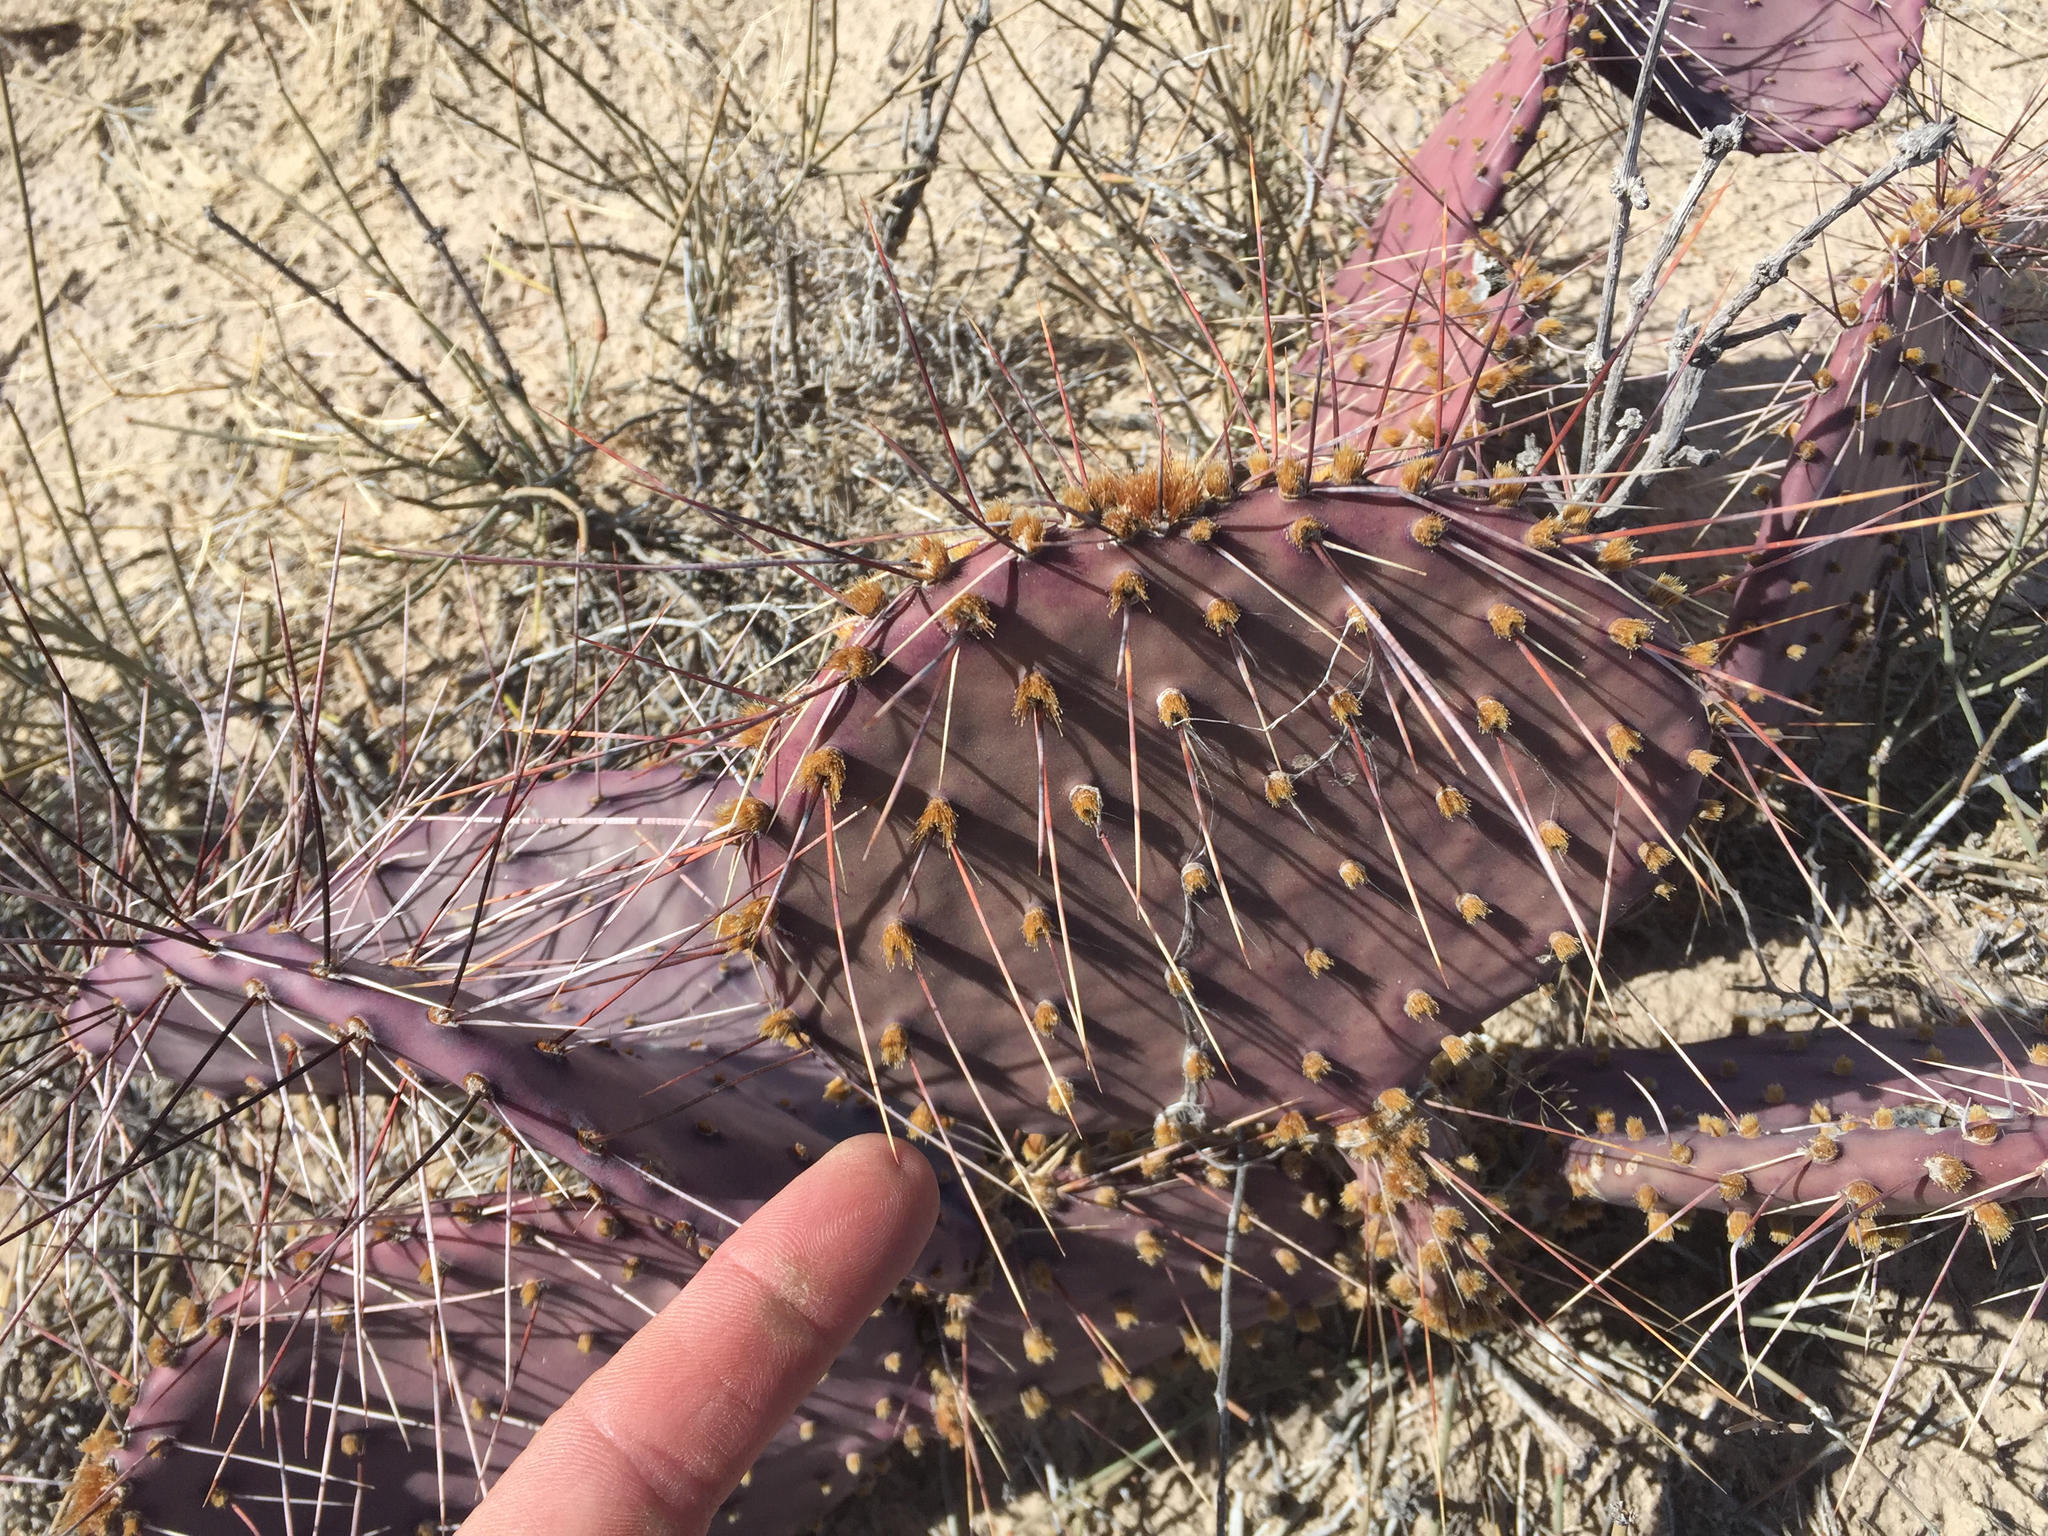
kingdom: Plantae
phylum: Tracheophyta
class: Magnoliopsida
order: Caryophyllales
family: Cactaceae
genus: Opuntia
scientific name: Opuntia macrocentra
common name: Purple prickly-pear
